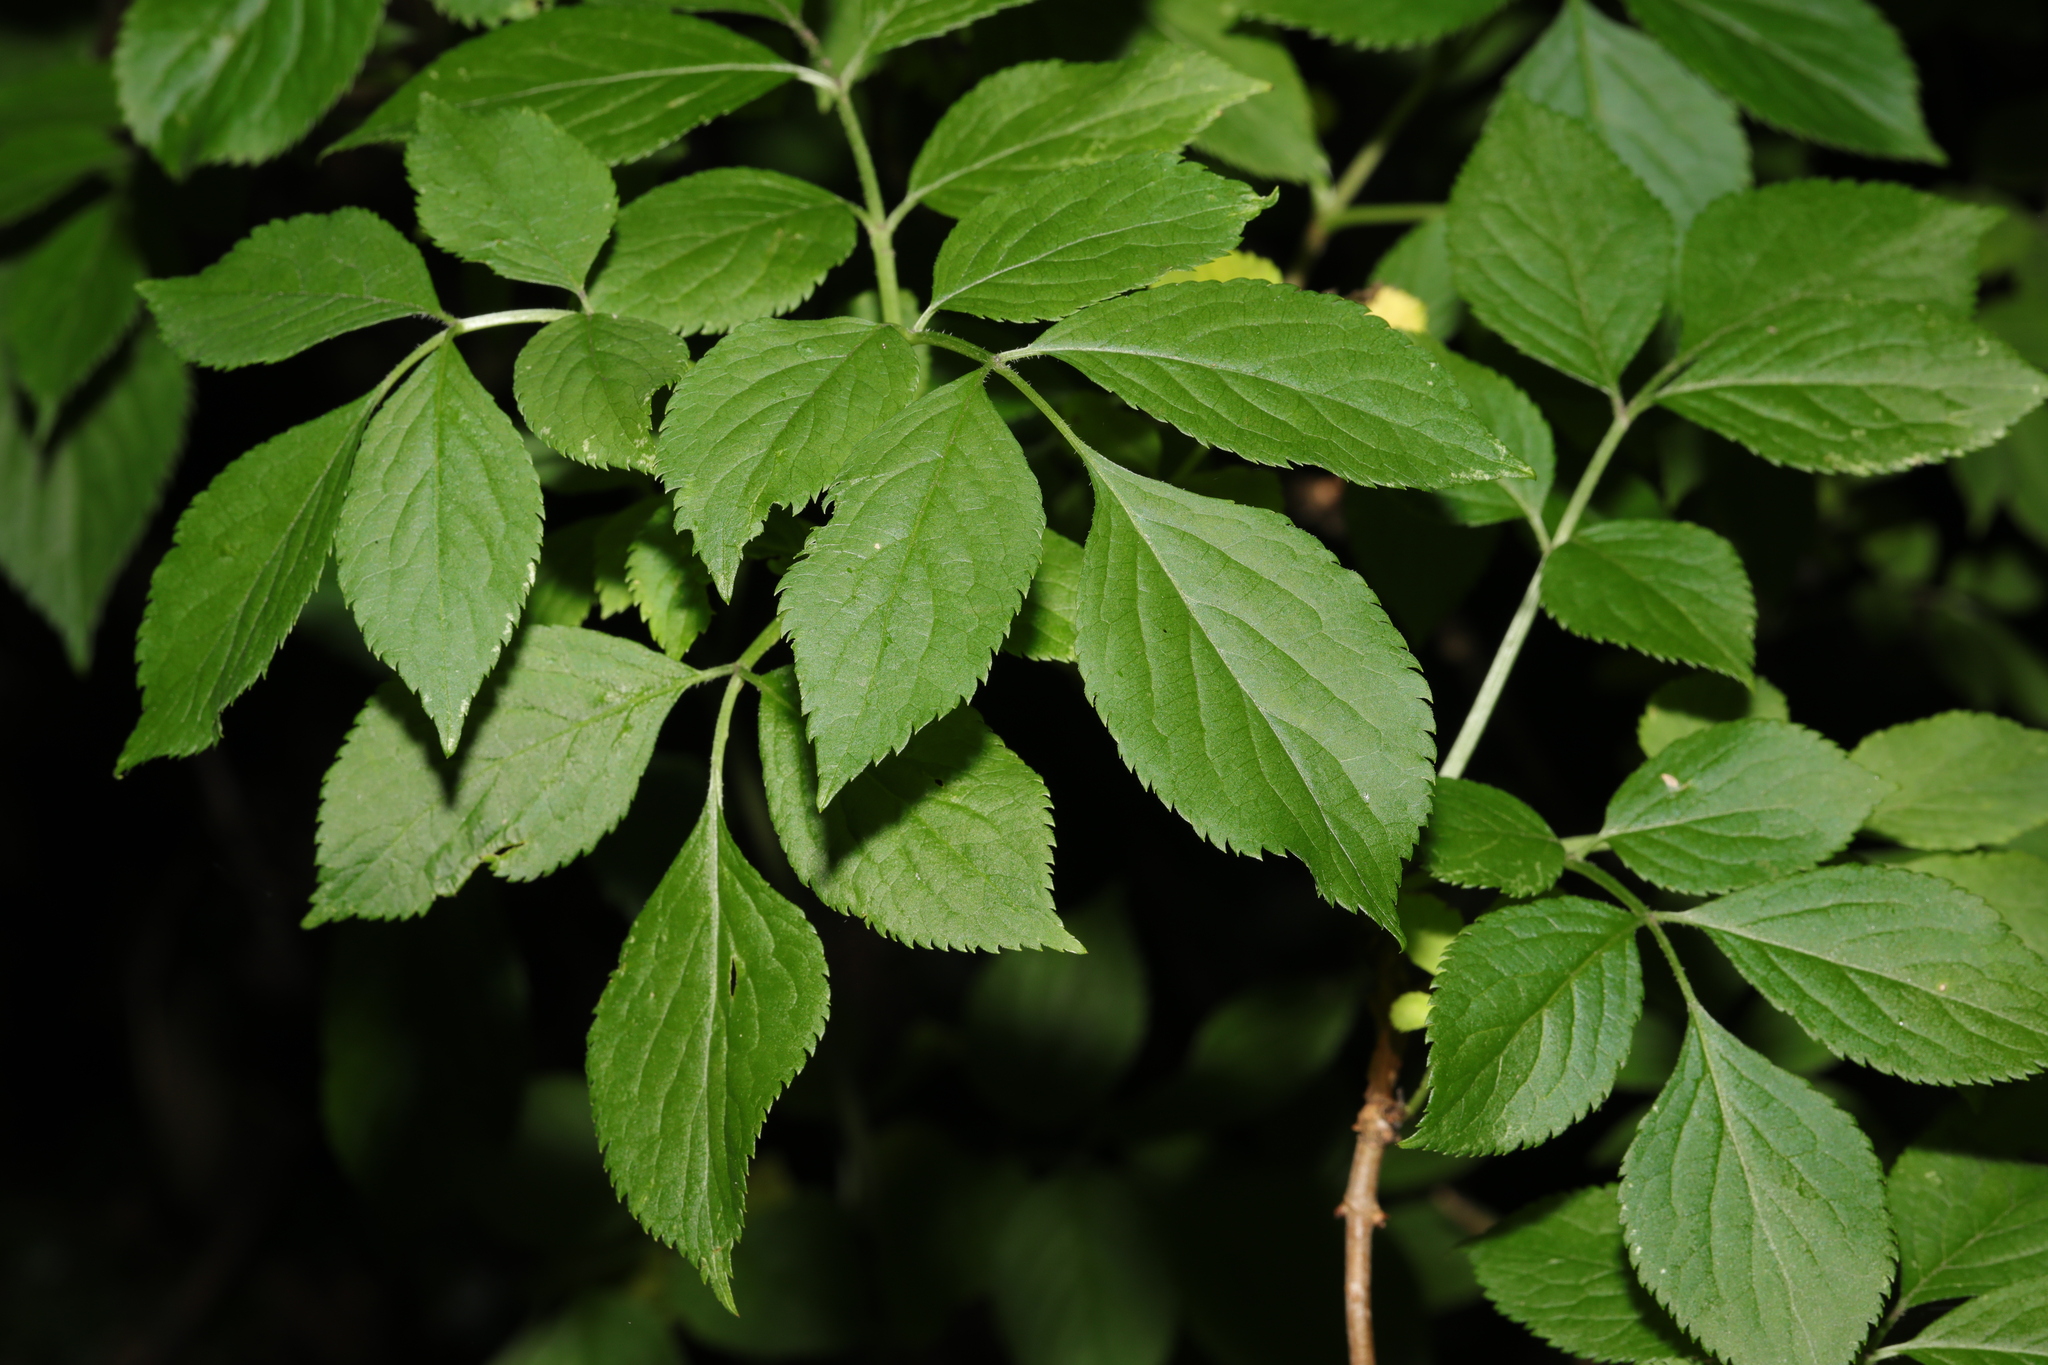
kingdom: Plantae
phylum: Tracheophyta
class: Magnoliopsida
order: Dipsacales
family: Viburnaceae
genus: Sambucus
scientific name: Sambucus nigra
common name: Elder
